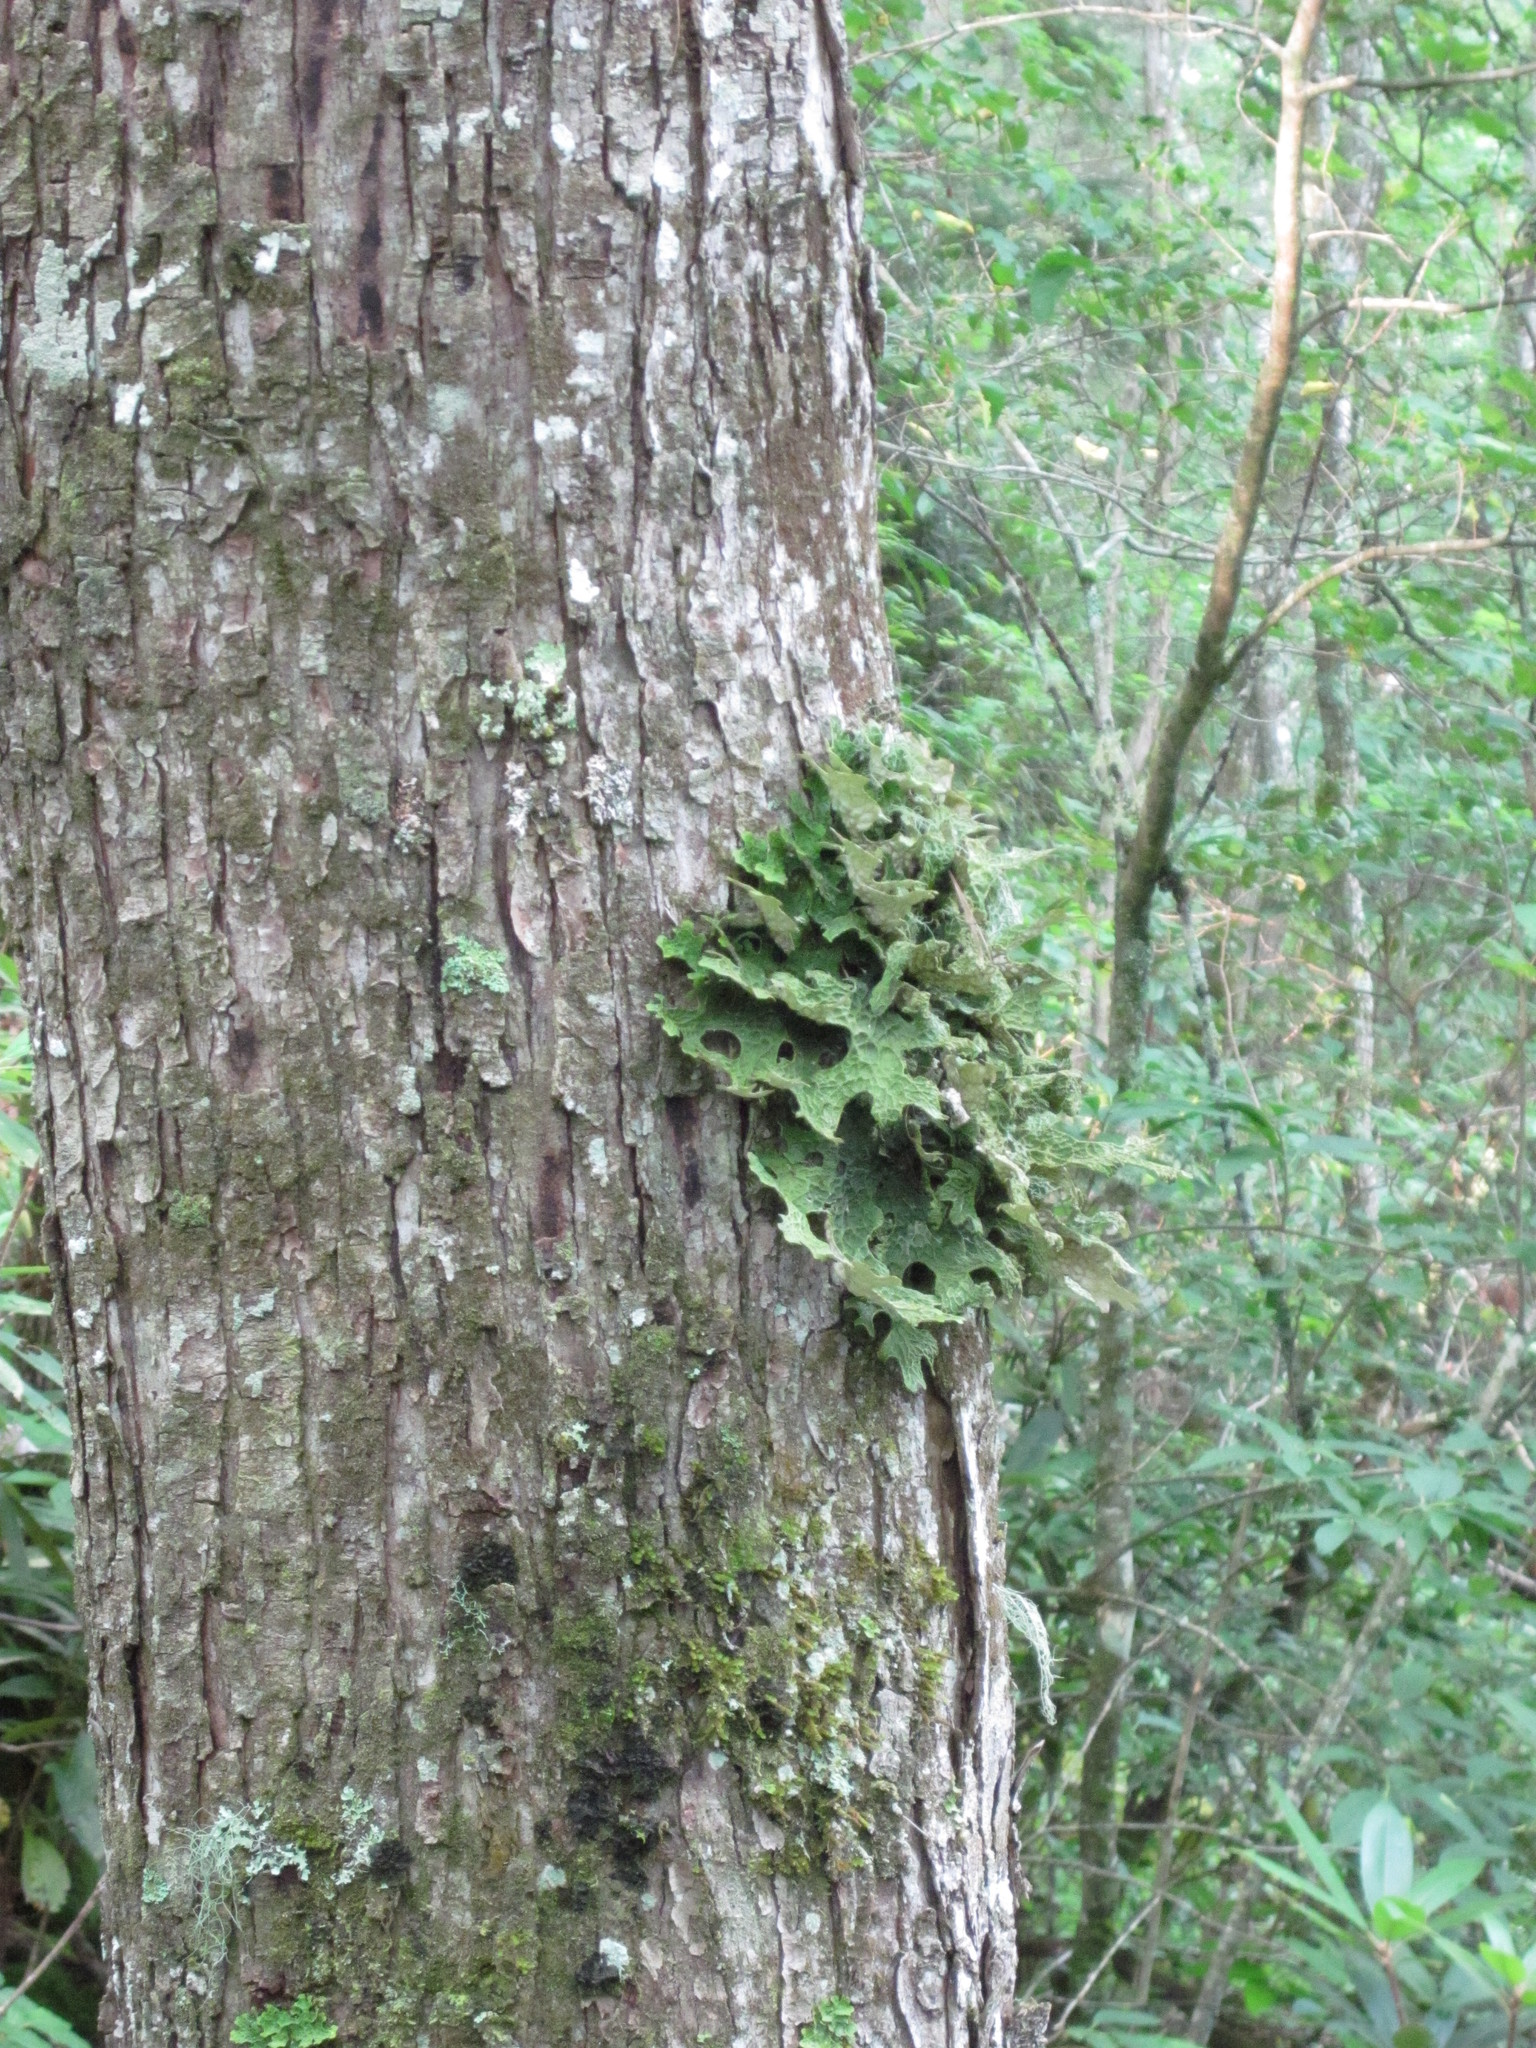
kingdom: Fungi
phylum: Ascomycota
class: Lecanoromycetes
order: Peltigerales
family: Lobariaceae
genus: Lobaria
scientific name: Lobaria pulmonaria
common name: Lungwort
